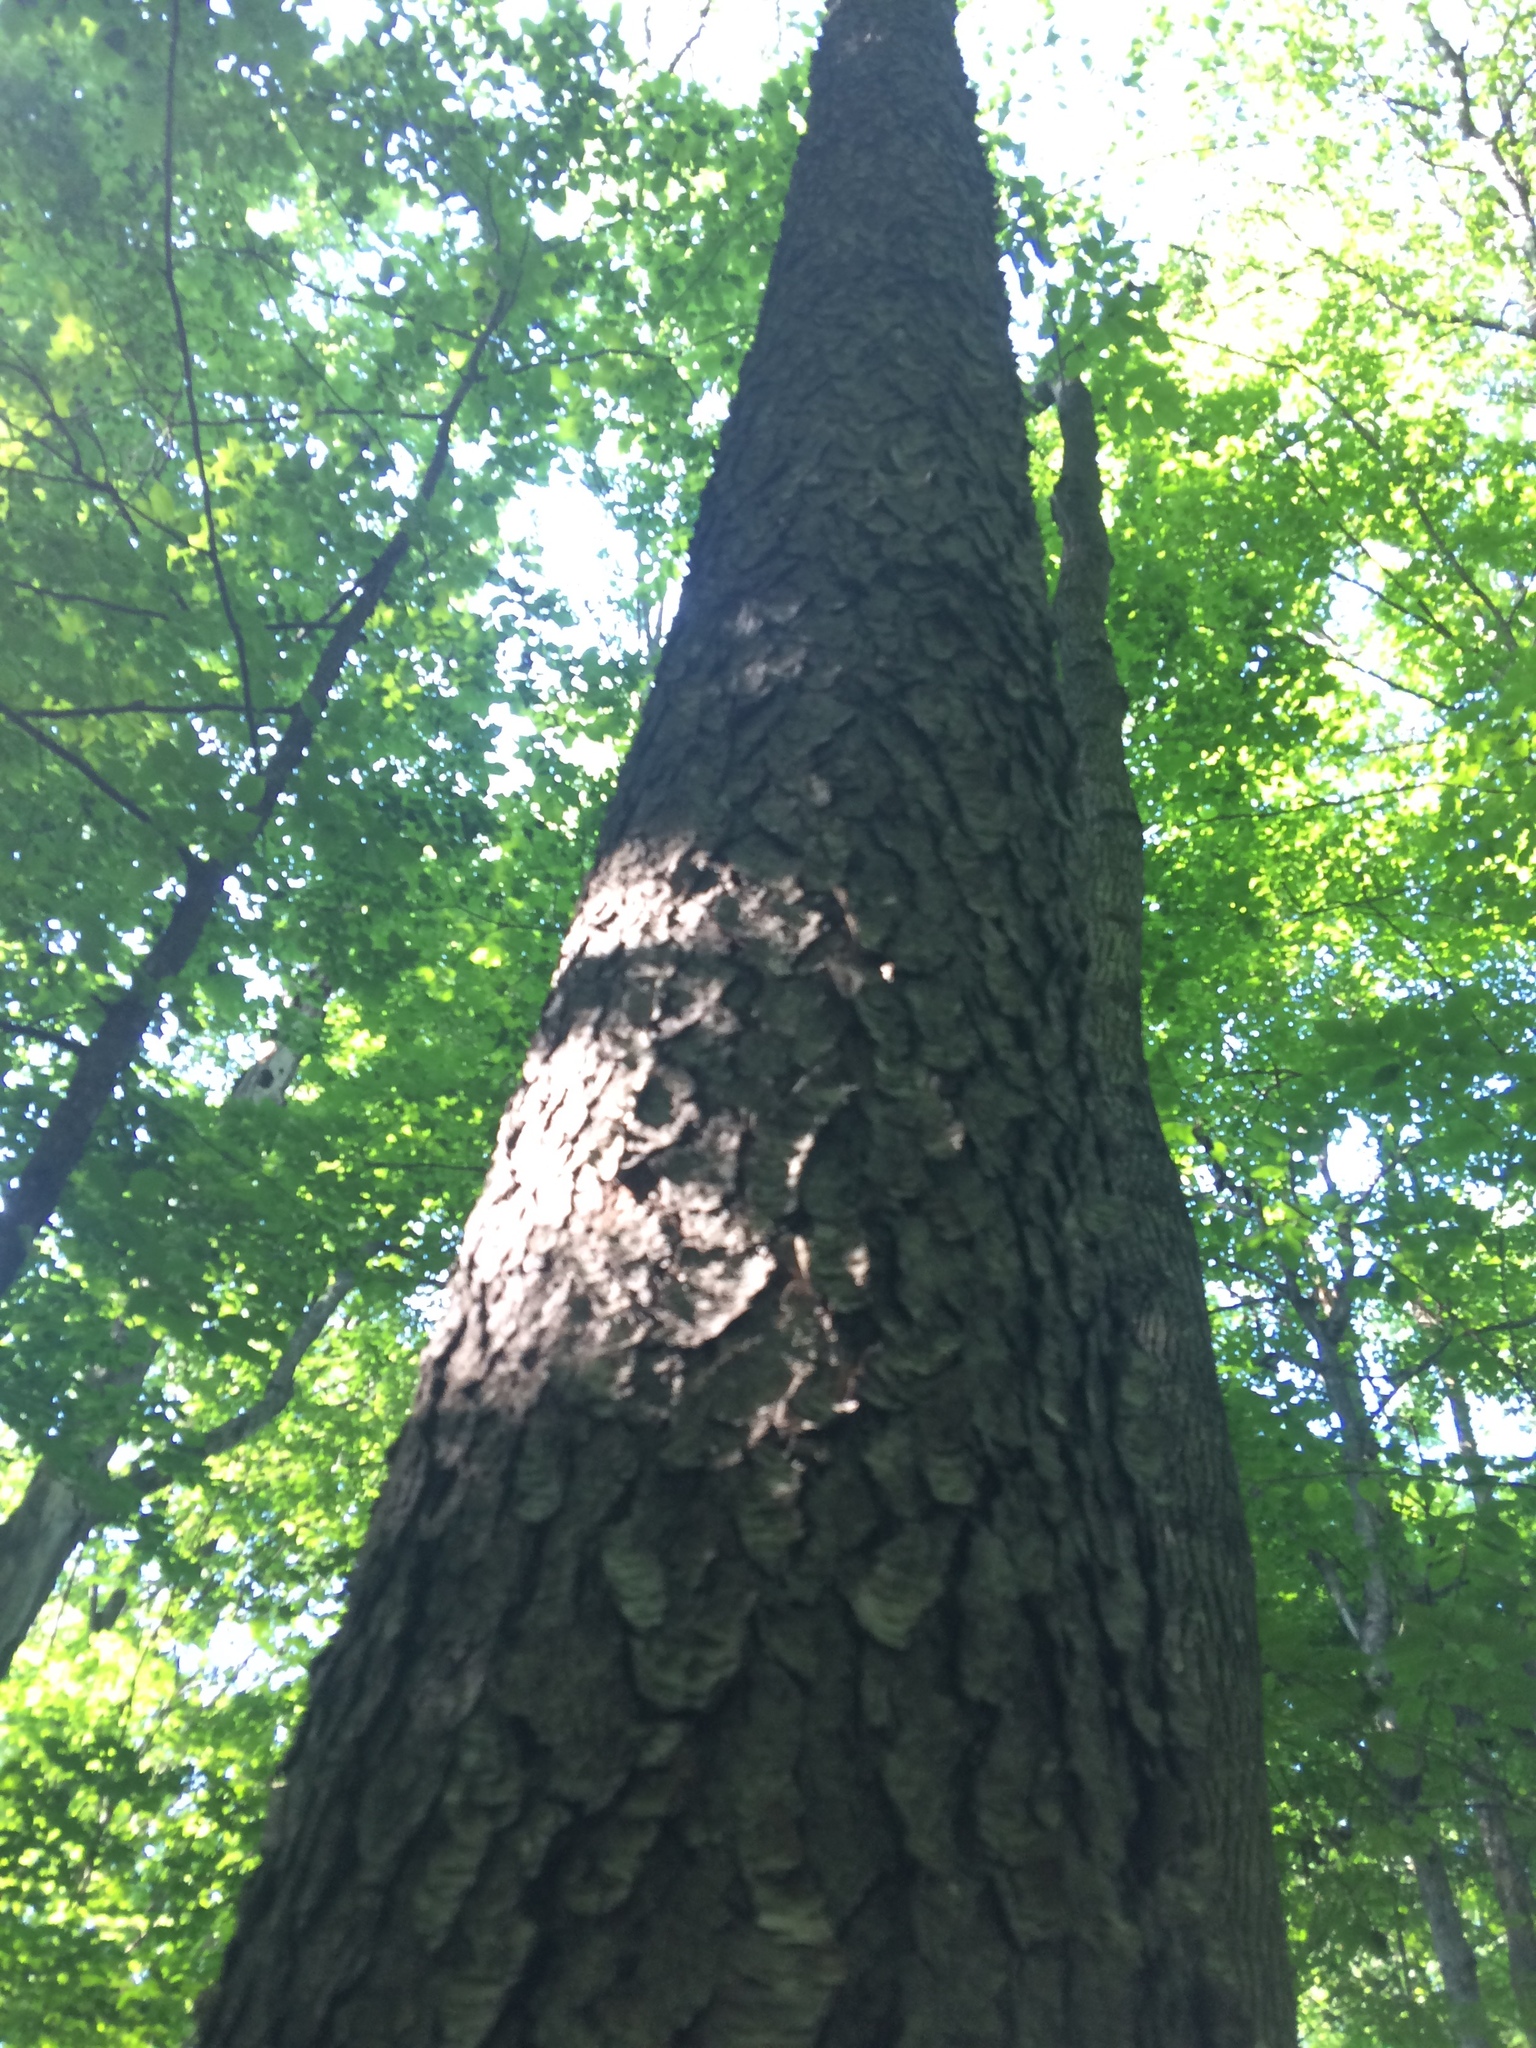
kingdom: Plantae
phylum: Tracheophyta
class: Magnoliopsida
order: Rosales
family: Rosaceae
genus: Prunus
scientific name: Prunus serotina
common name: Black cherry
